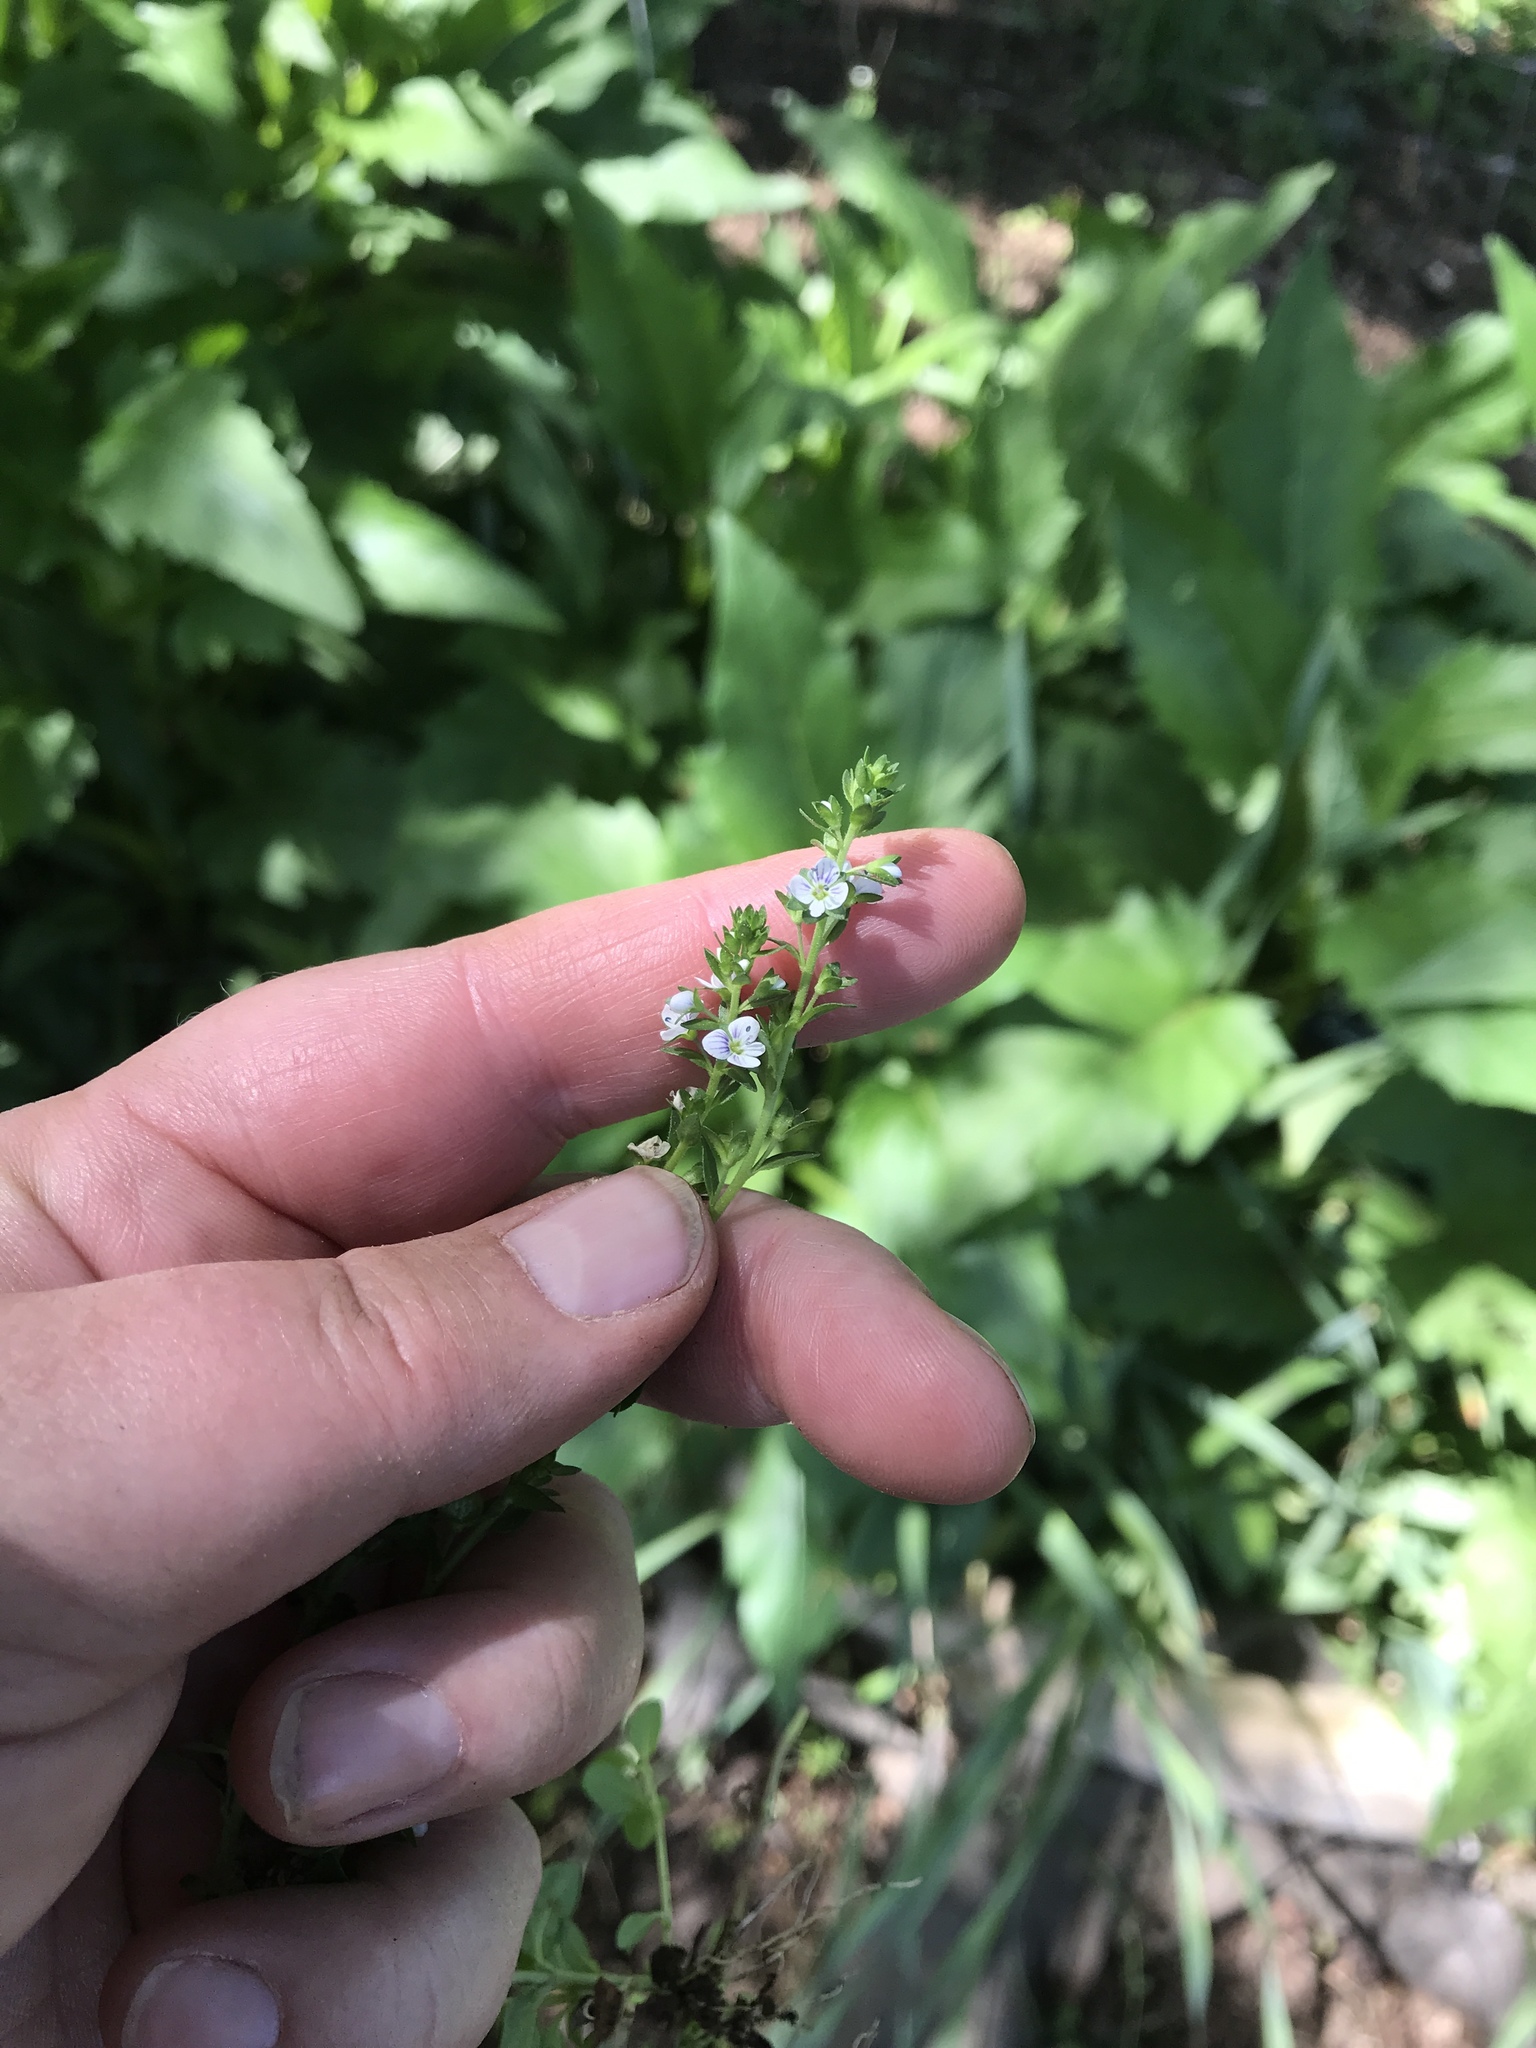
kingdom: Plantae
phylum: Tracheophyta
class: Magnoliopsida
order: Lamiales
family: Plantaginaceae
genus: Veronica
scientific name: Veronica serpyllifolia
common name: Thyme-leaved speedwell
